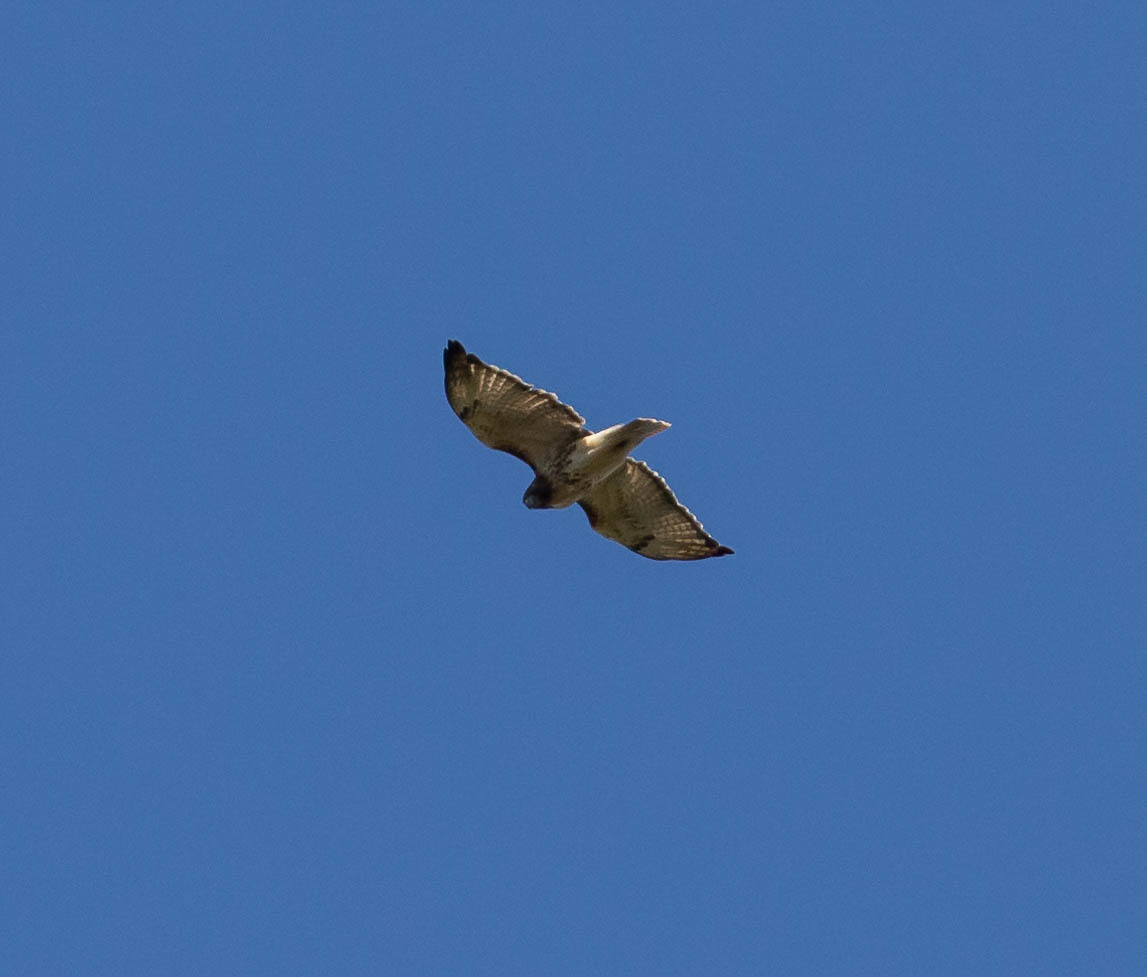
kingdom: Animalia
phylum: Chordata
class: Aves
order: Accipitriformes
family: Accipitridae
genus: Buteo
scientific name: Buteo jamaicensis
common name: Red-tailed hawk
